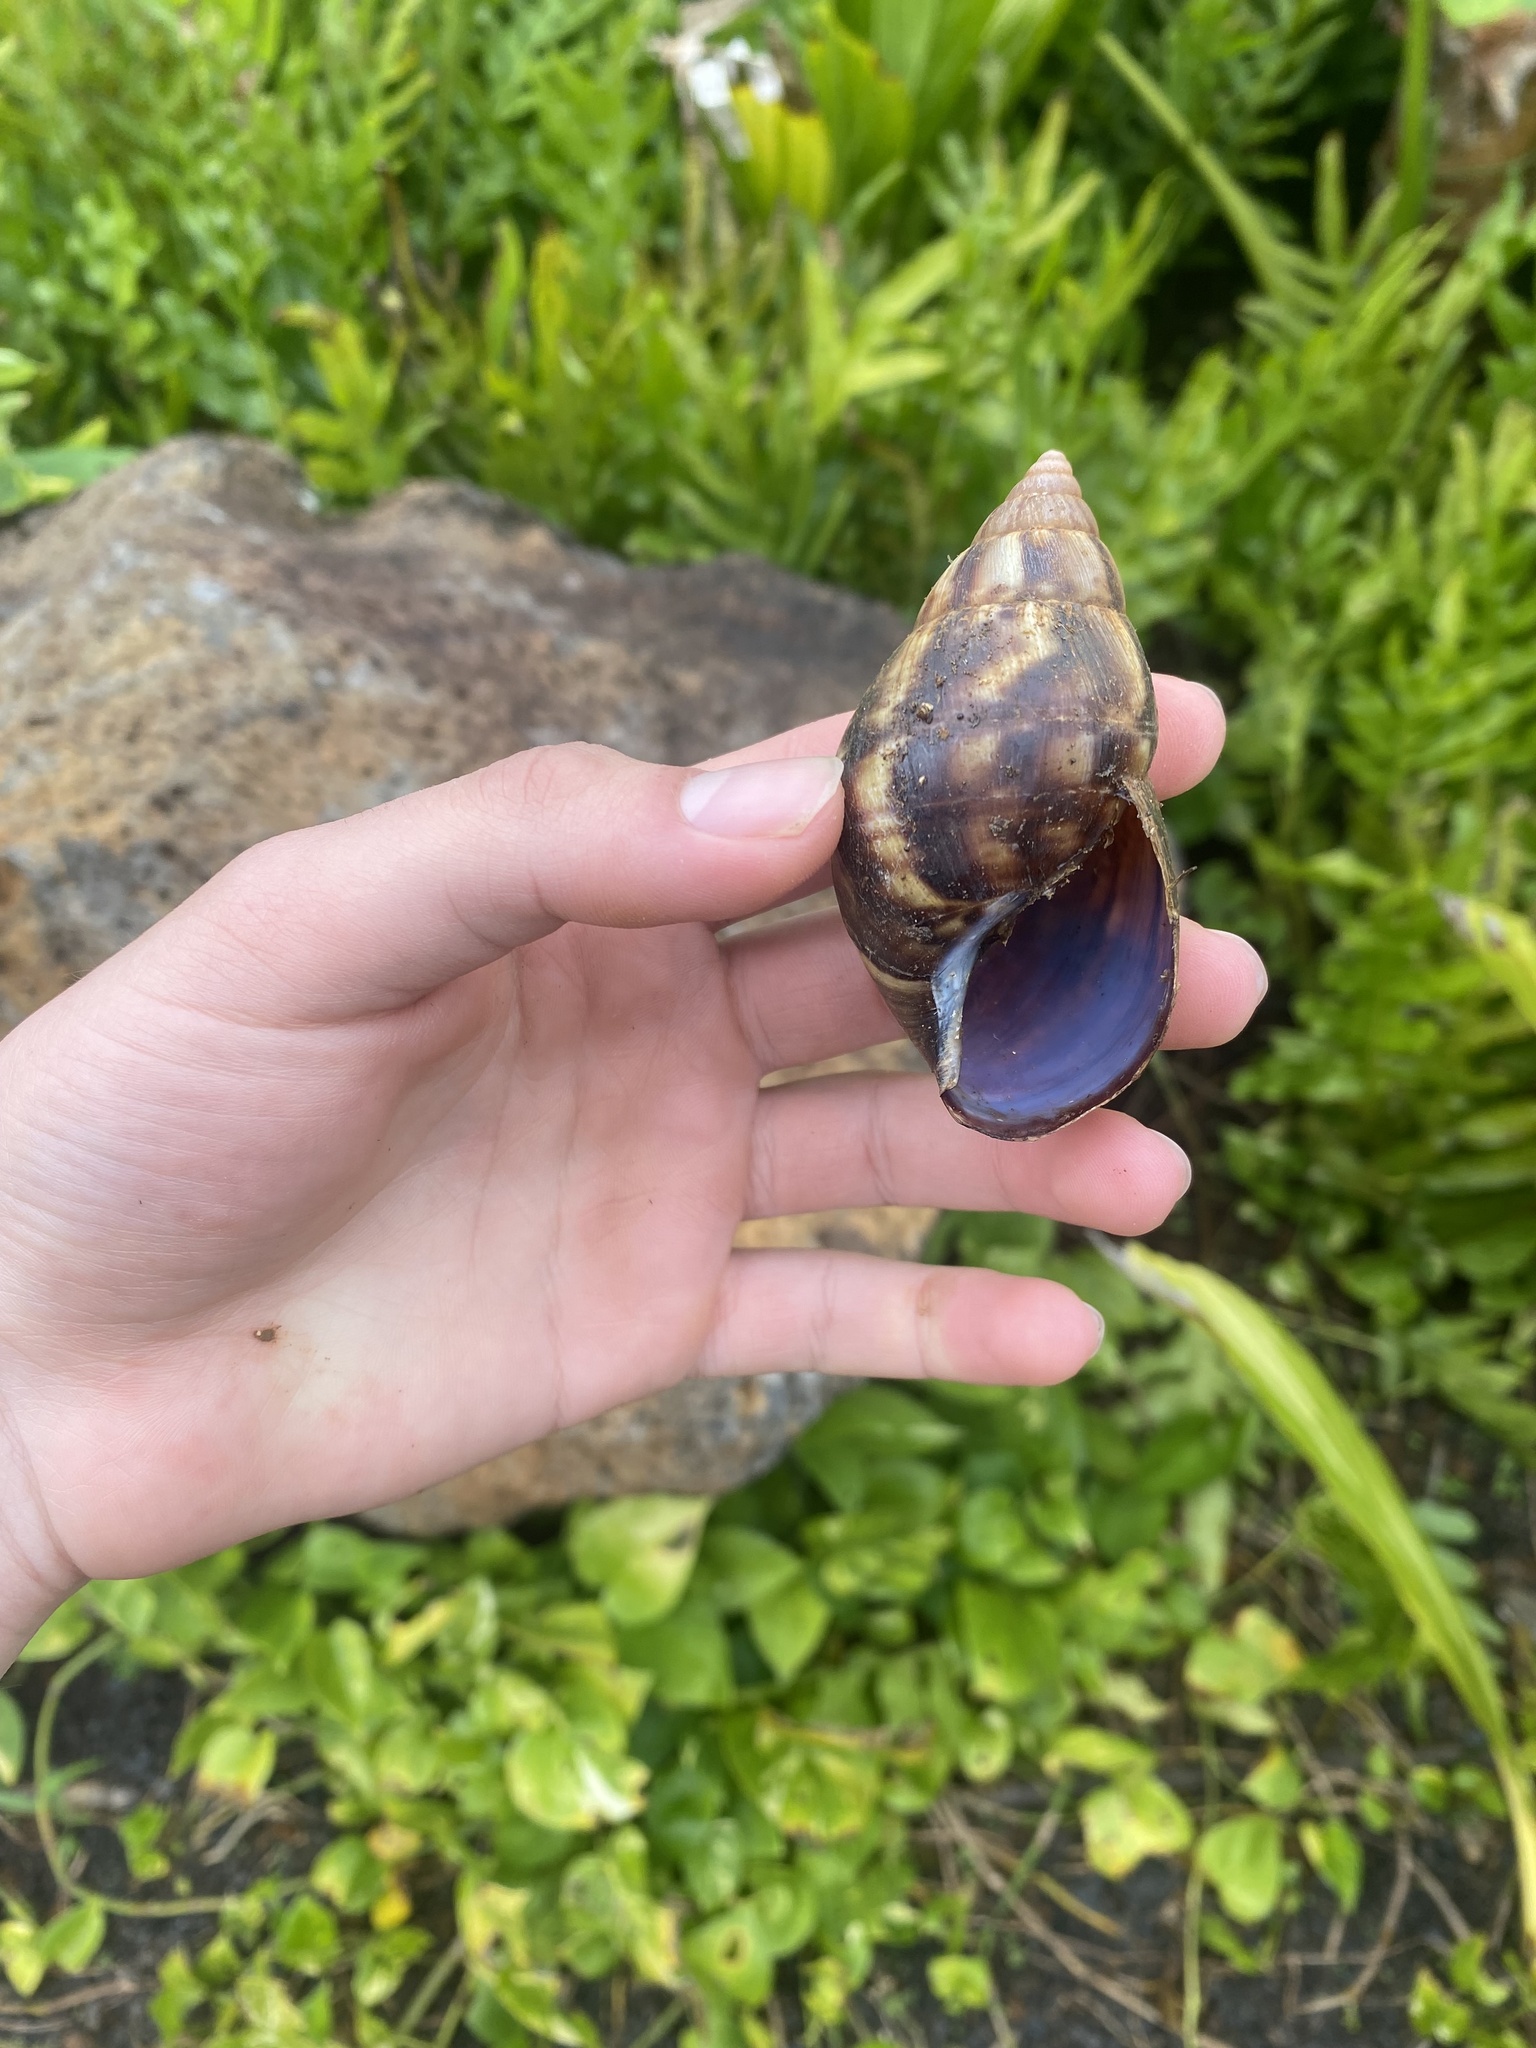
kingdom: Animalia
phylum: Mollusca
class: Gastropoda
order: Stylommatophora
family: Achatinidae
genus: Lissachatina
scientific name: Lissachatina fulica
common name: Giant african snail
